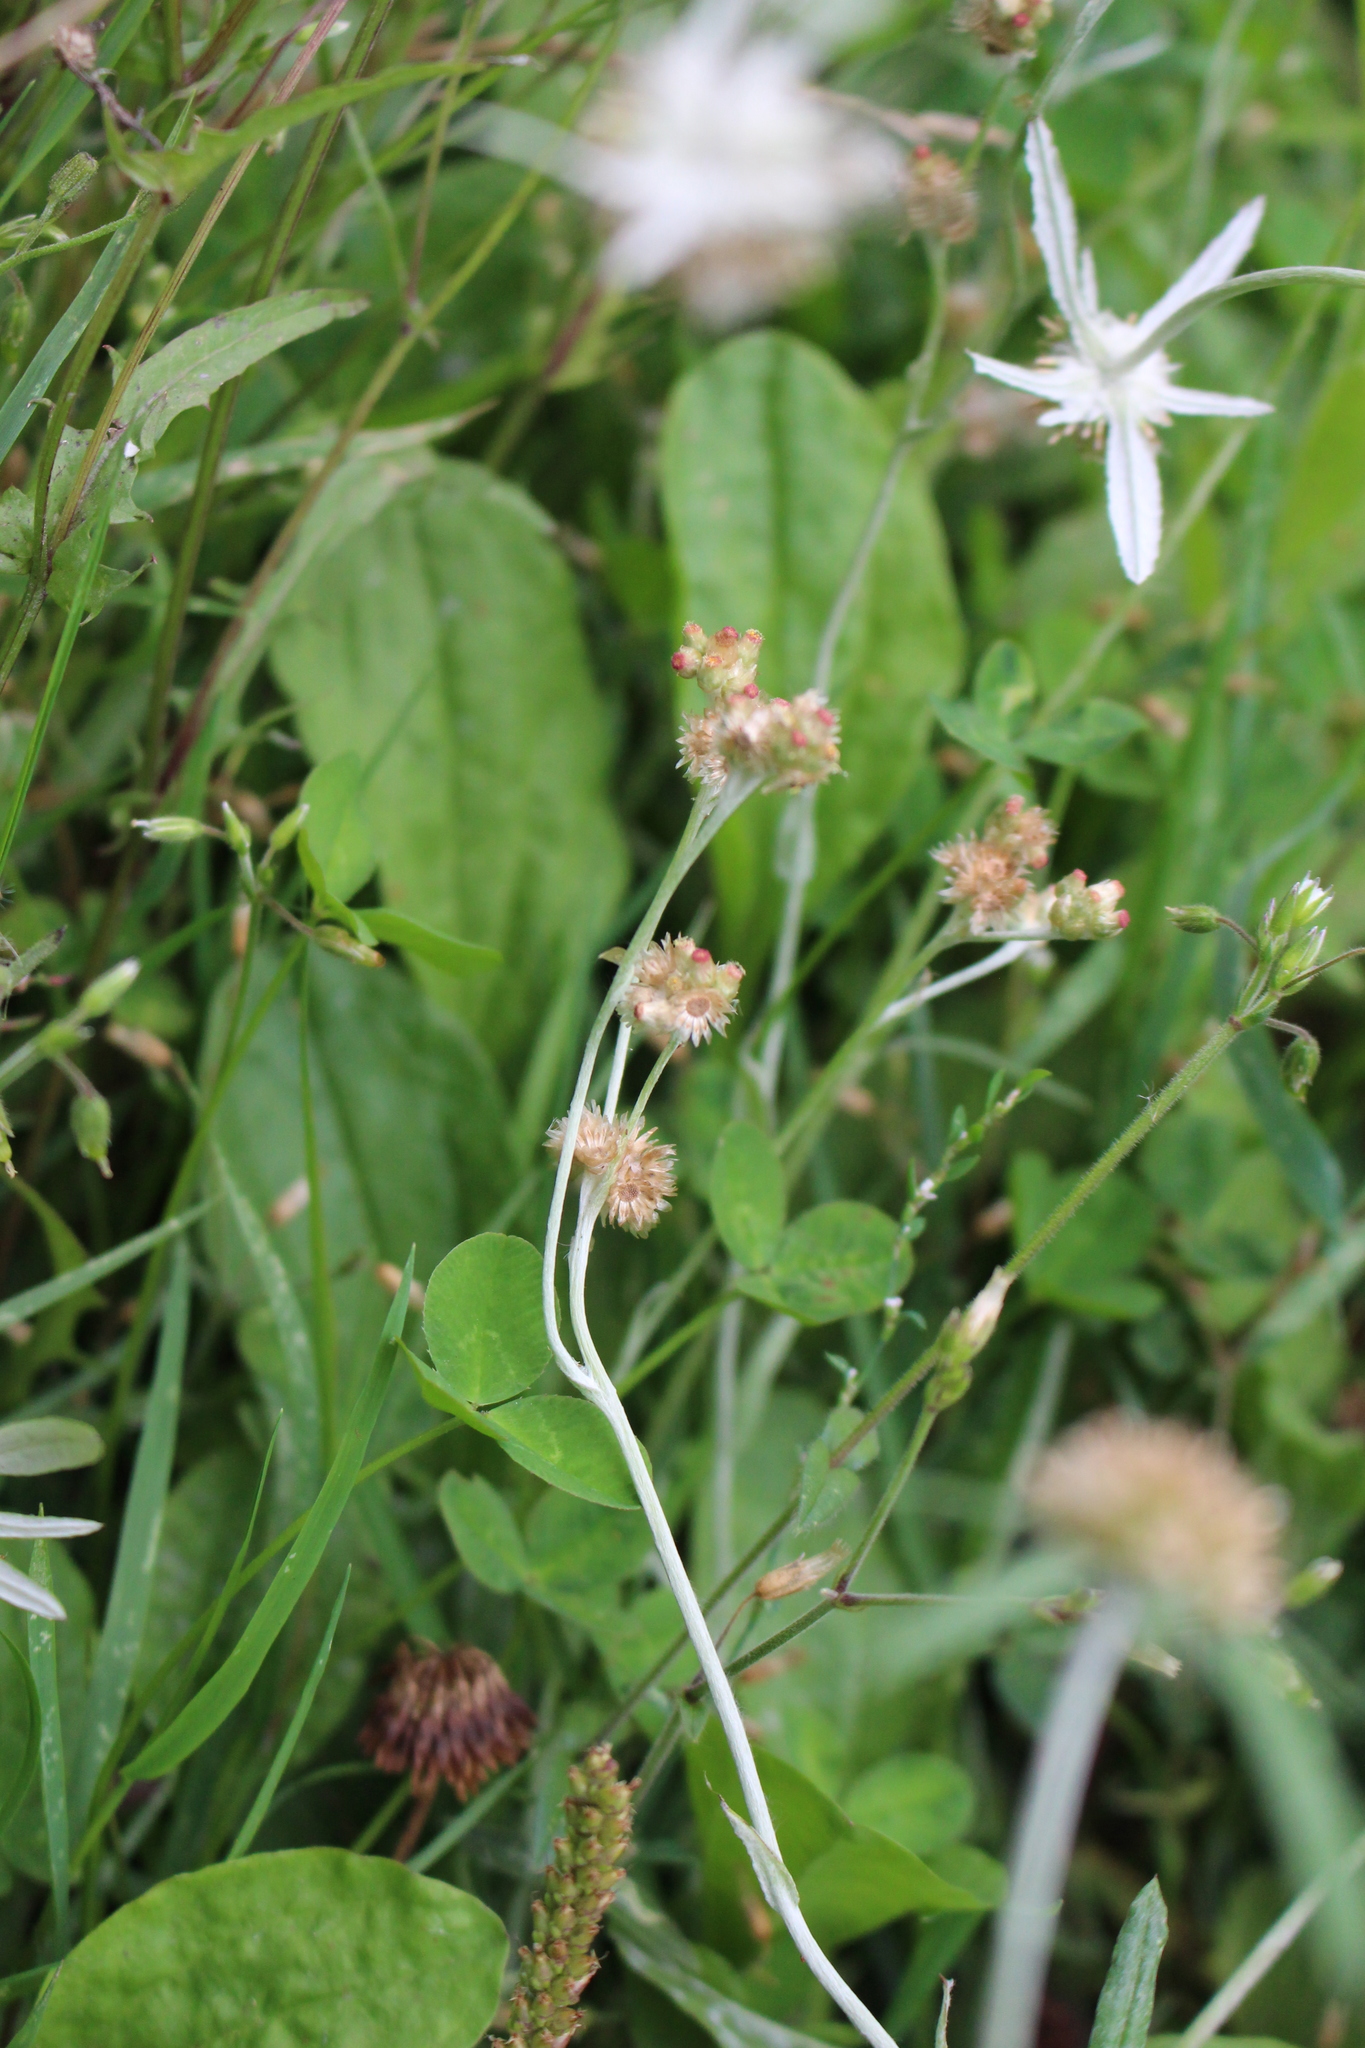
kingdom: Plantae
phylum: Tracheophyta
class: Magnoliopsida
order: Asterales
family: Asteraceae
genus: Helichrysum
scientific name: Helichrysum luteoalbum
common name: Daisy
